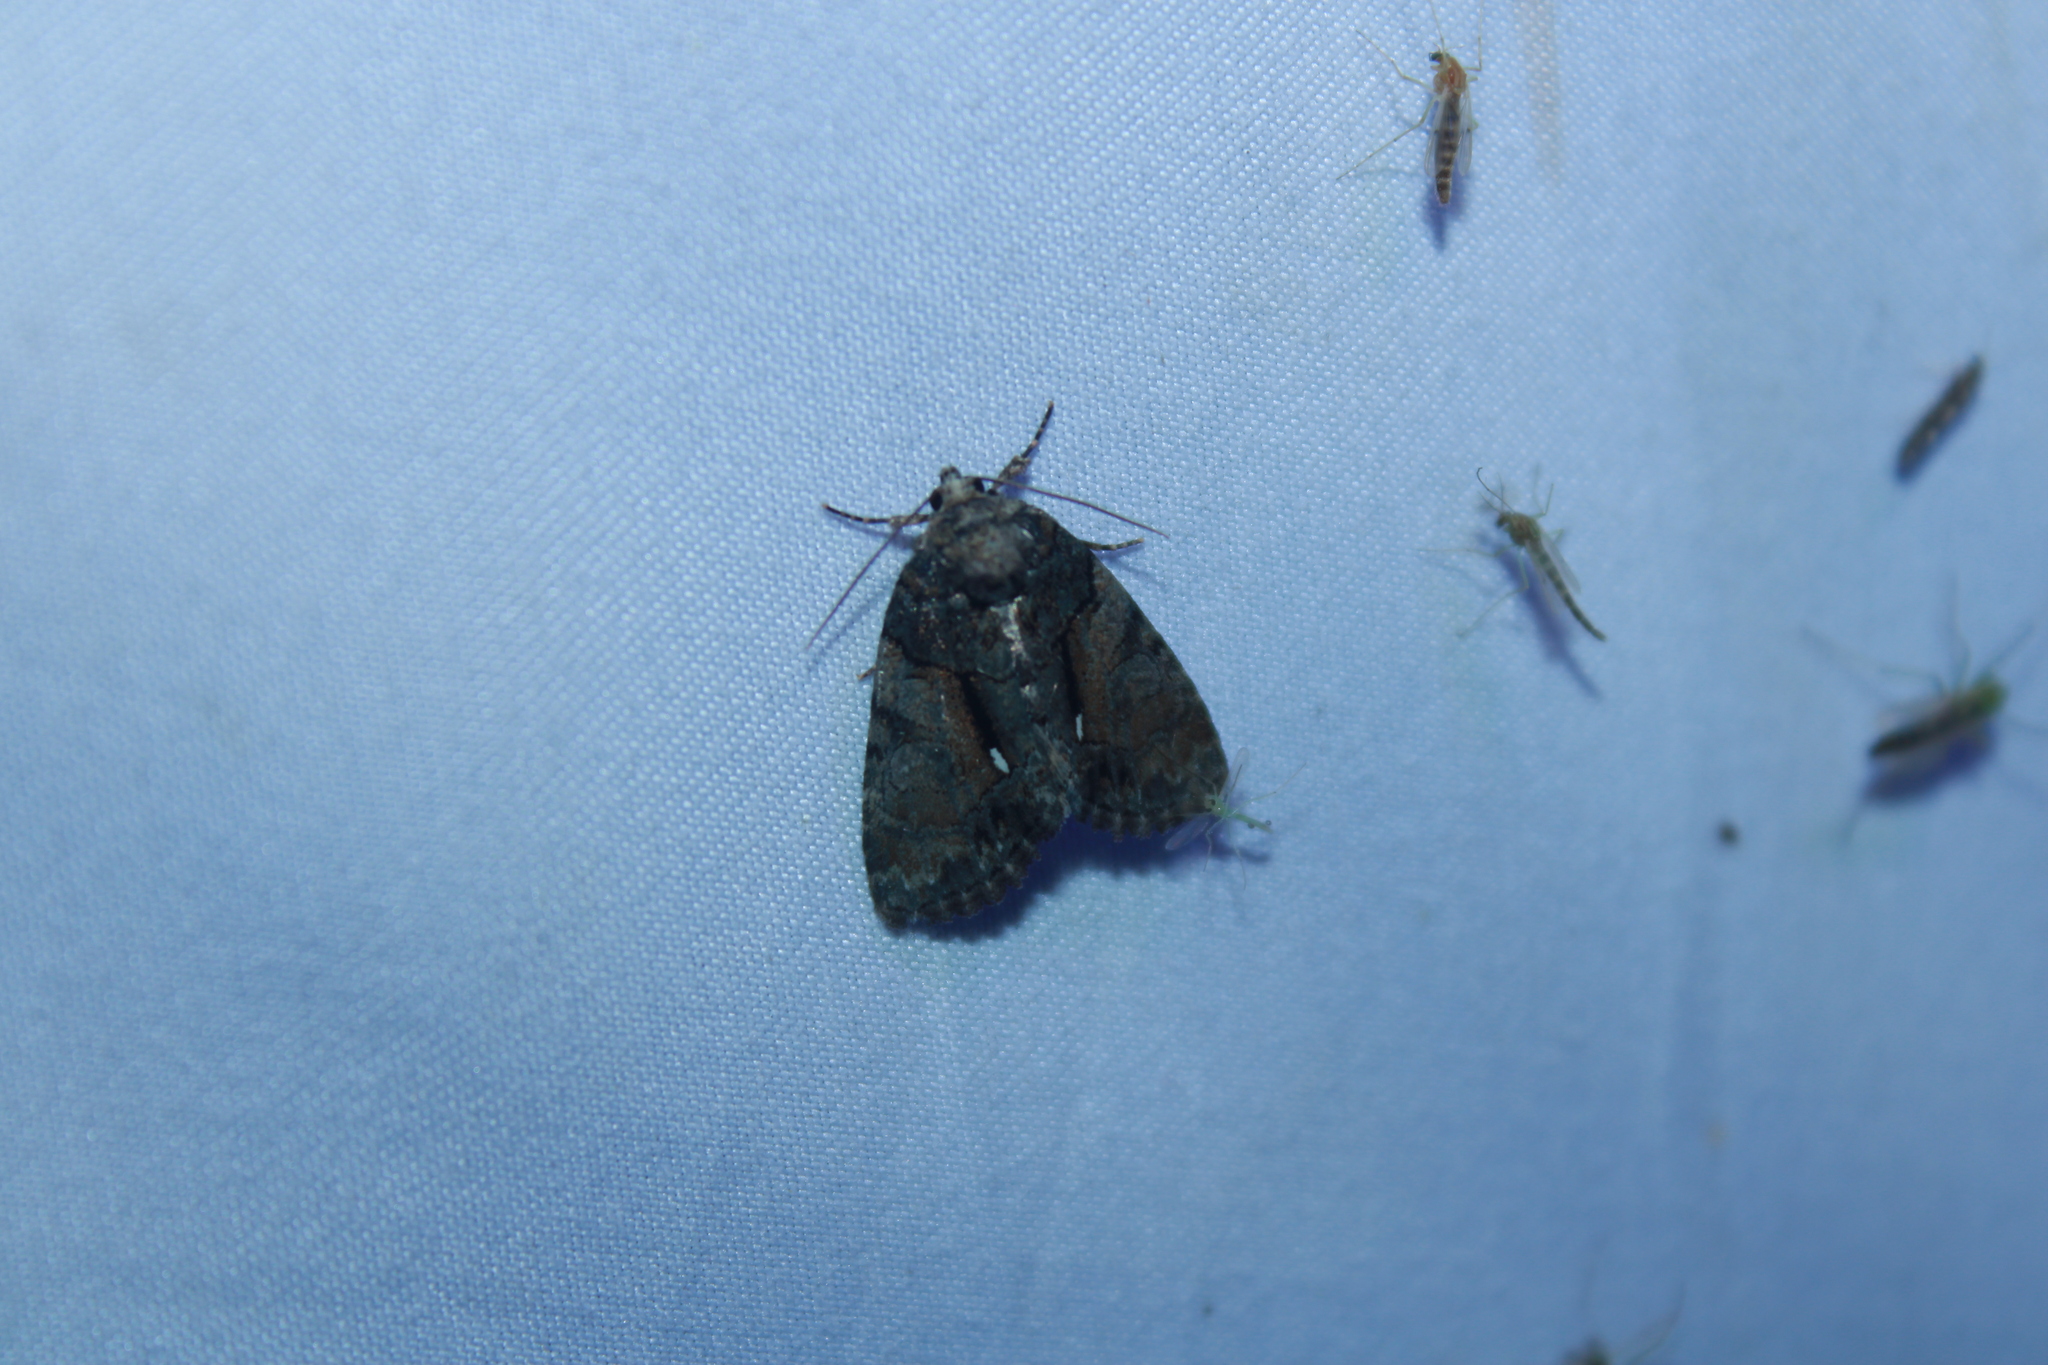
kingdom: Animalia
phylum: Arthropoda
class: Insecta
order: Lepidoptera
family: Noctuidae
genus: Chytonix
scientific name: Chytonix palliatricula
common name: Cloaked marvel
